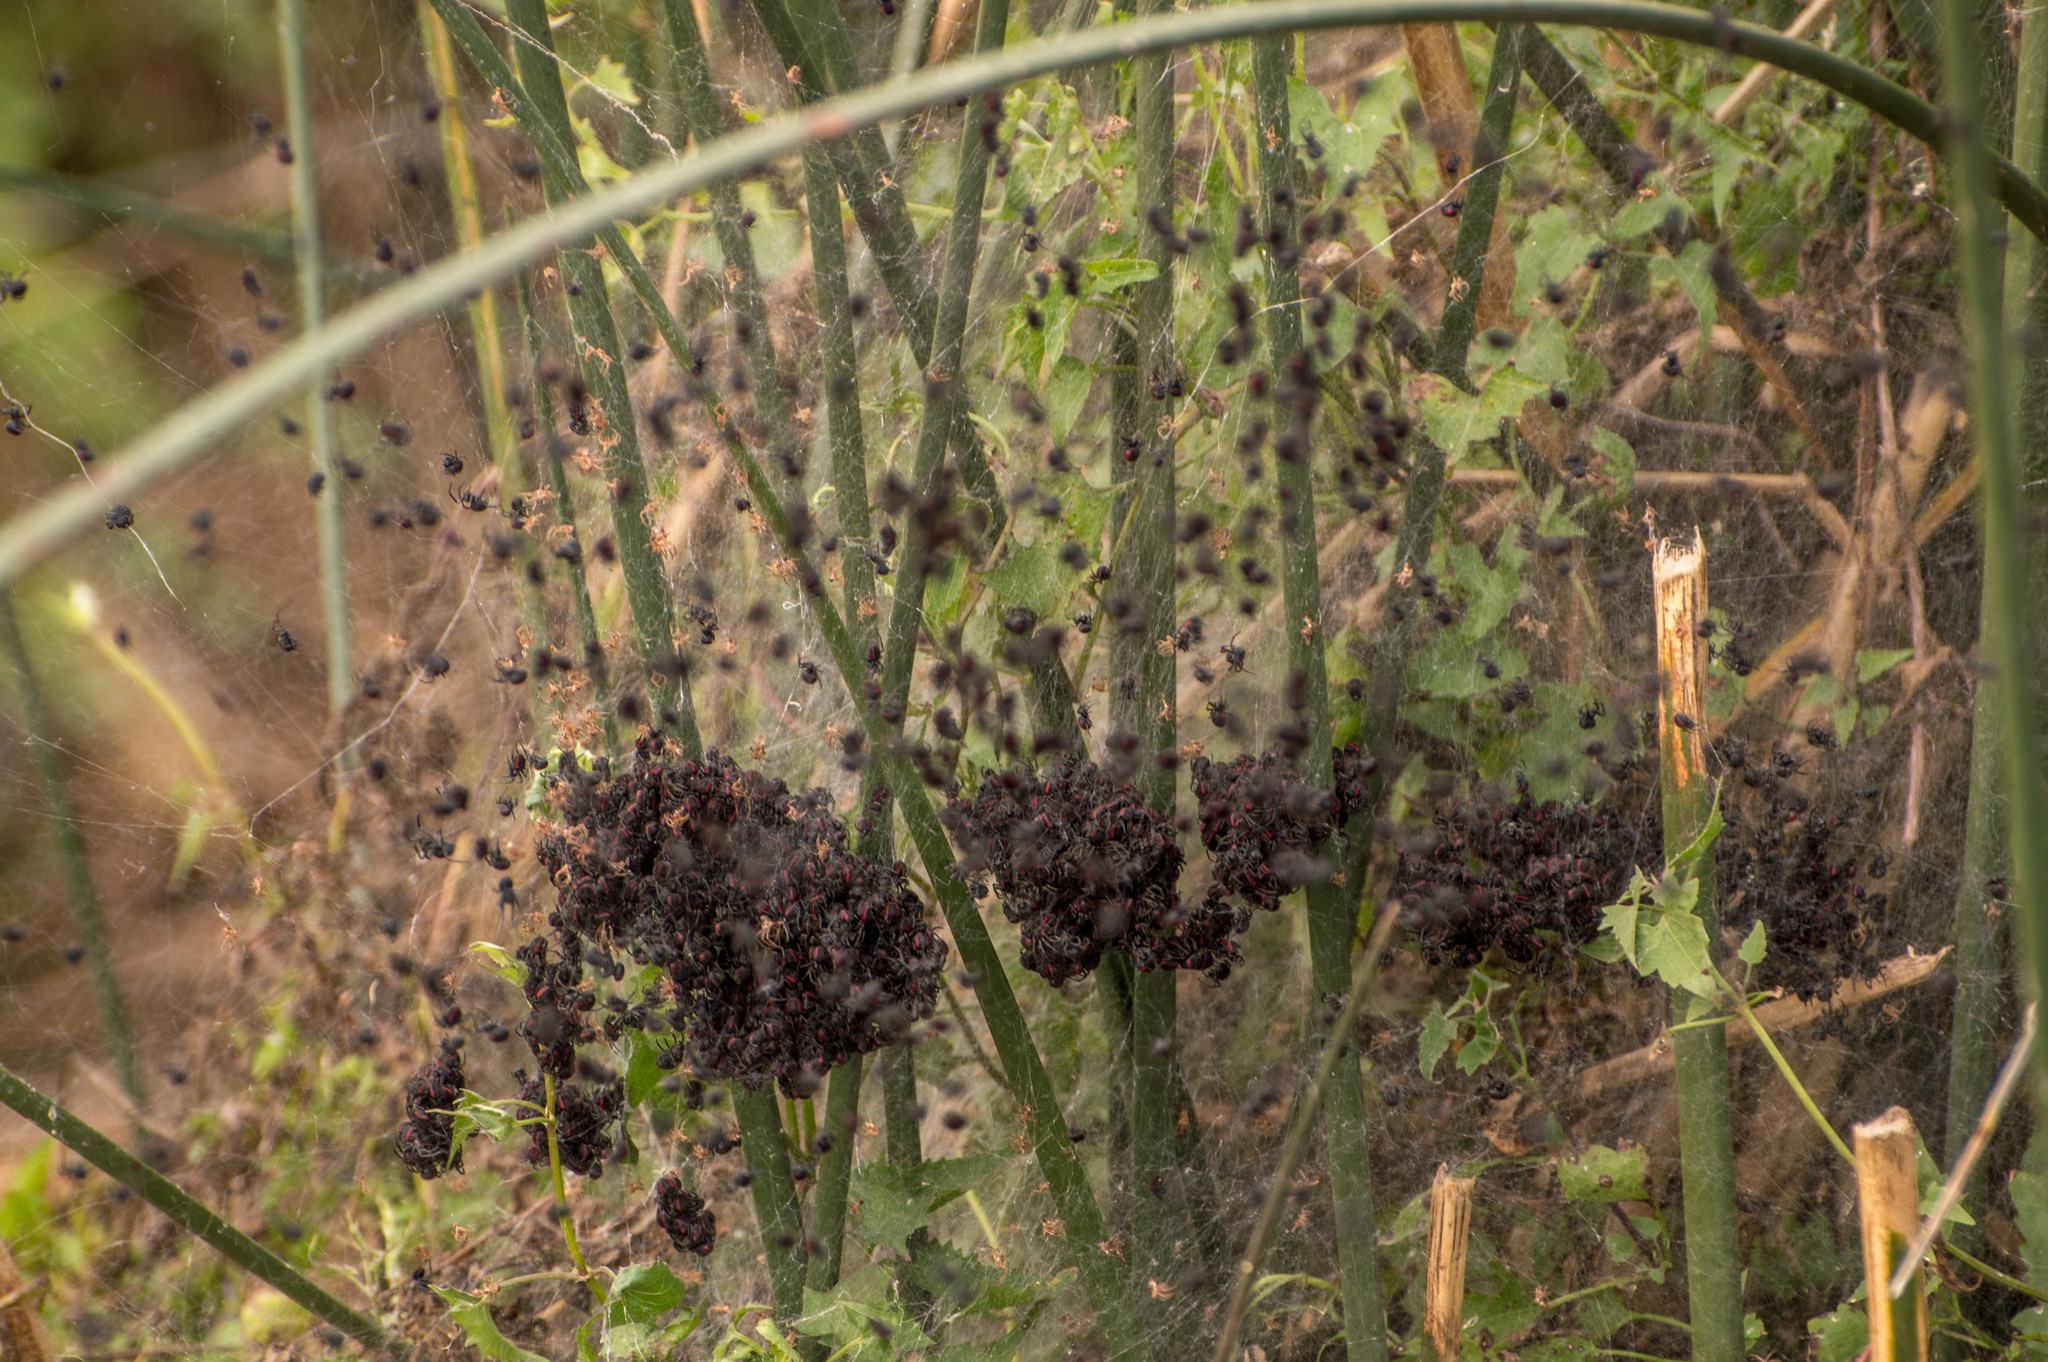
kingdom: Animalia
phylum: Arthropoda
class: Arachnida
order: Araneae
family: Araneidae
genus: Parawixia
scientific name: Parawixia bistriata
